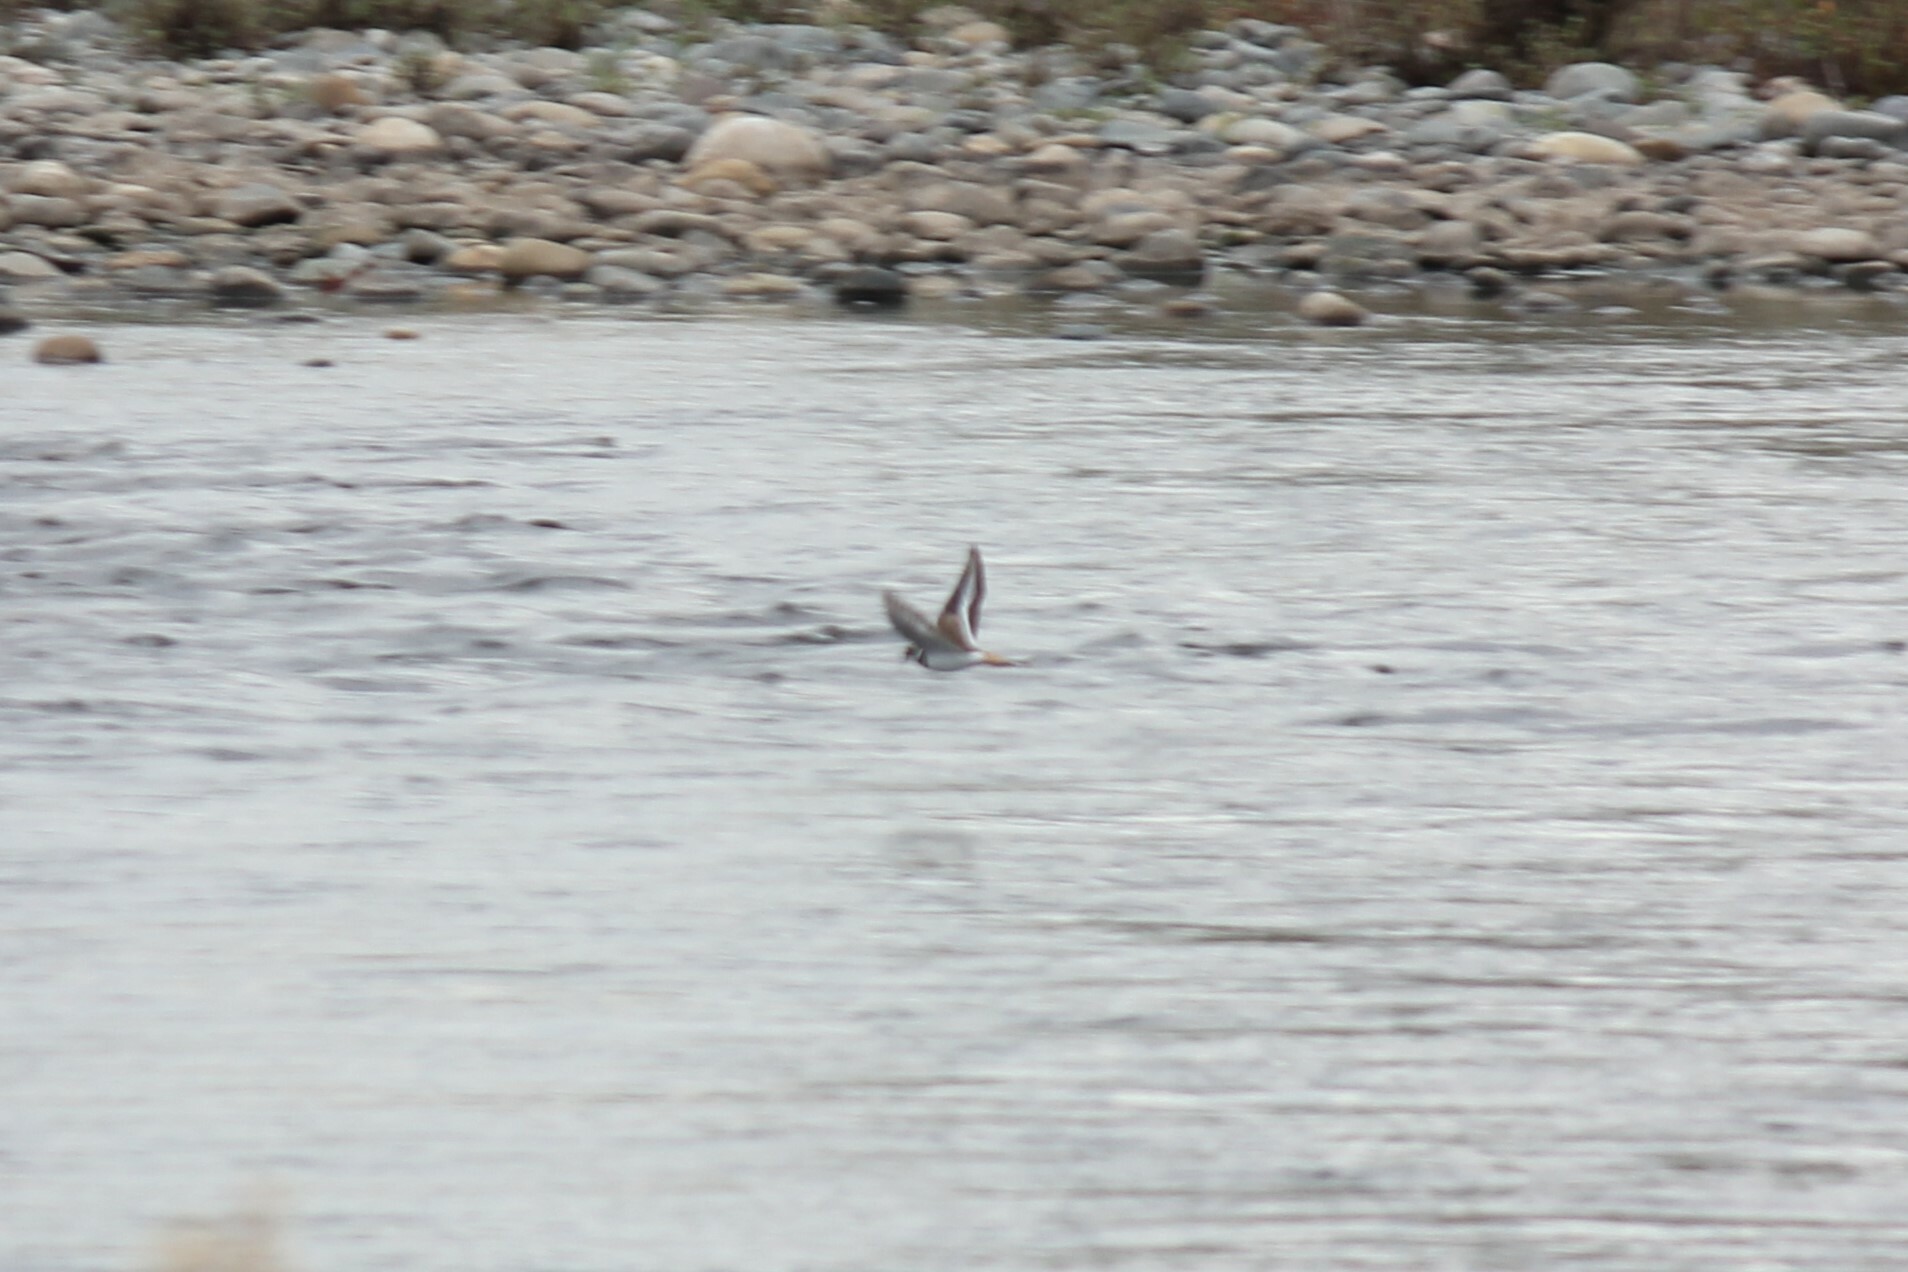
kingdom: Animalia
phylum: Chordata
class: Aves
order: Charadriiformes
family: Charadriidae
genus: Charadrius
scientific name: Charadrius vociferus
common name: Killdeer
